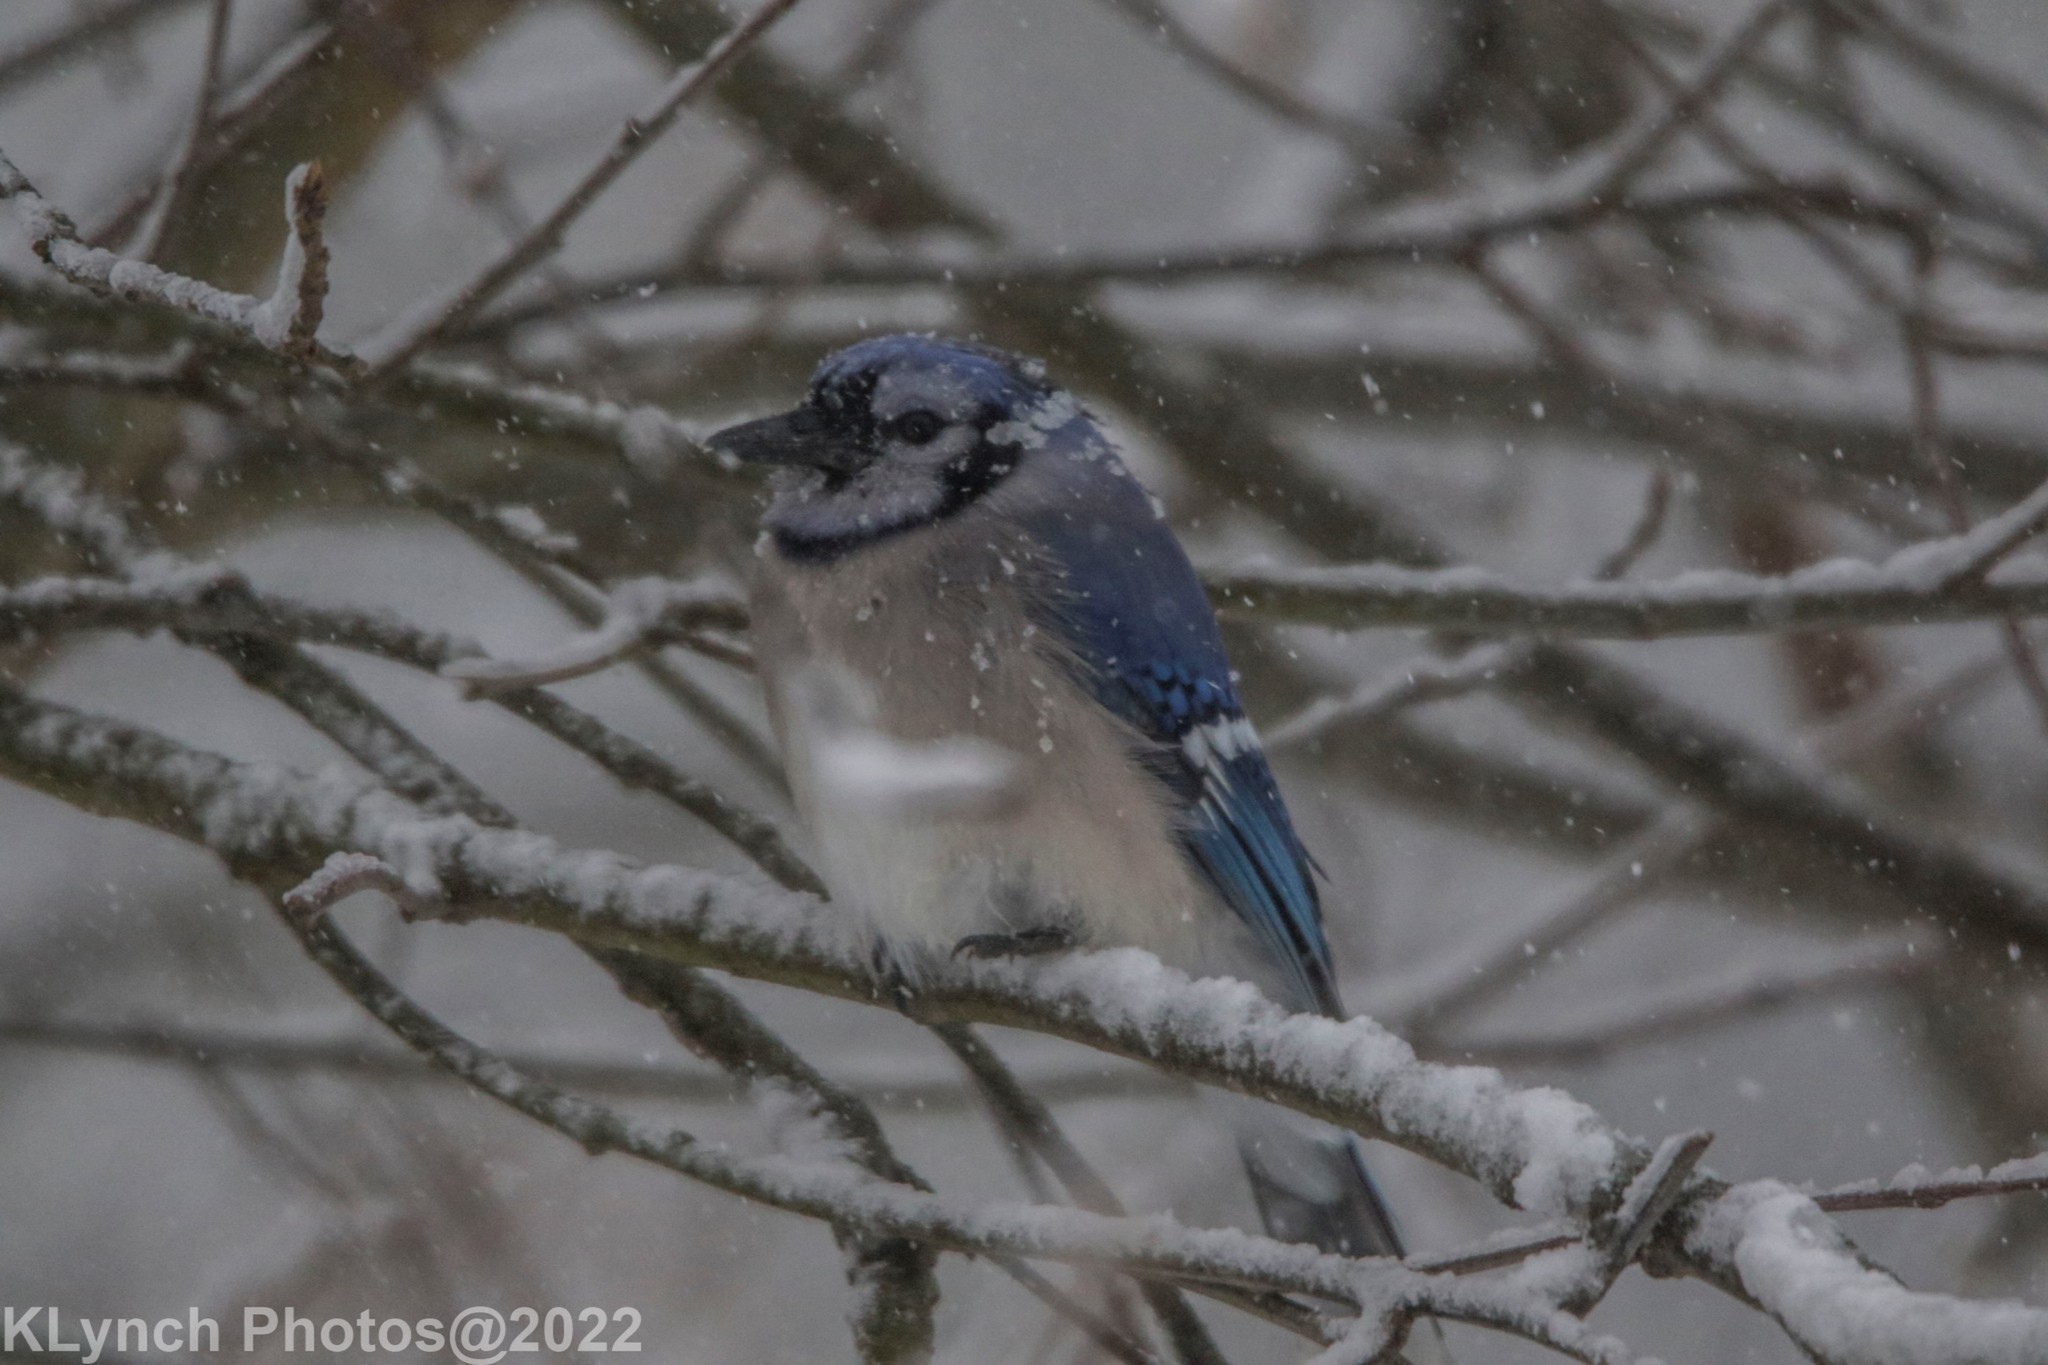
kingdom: Animalia
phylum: Chordata
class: Aves
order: Passeriformes
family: Corvidae
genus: Cyanocitta
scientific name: Cyanocitta cristata
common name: Blue jay
